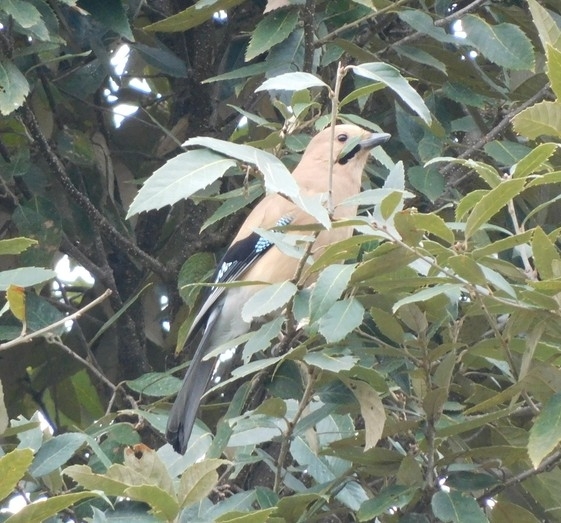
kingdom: Animalia
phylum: Chordata
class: Aves
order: Passeriformes
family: Corvidae
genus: Garrulus
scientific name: Garrulus glandarius
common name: Eurasian jay
